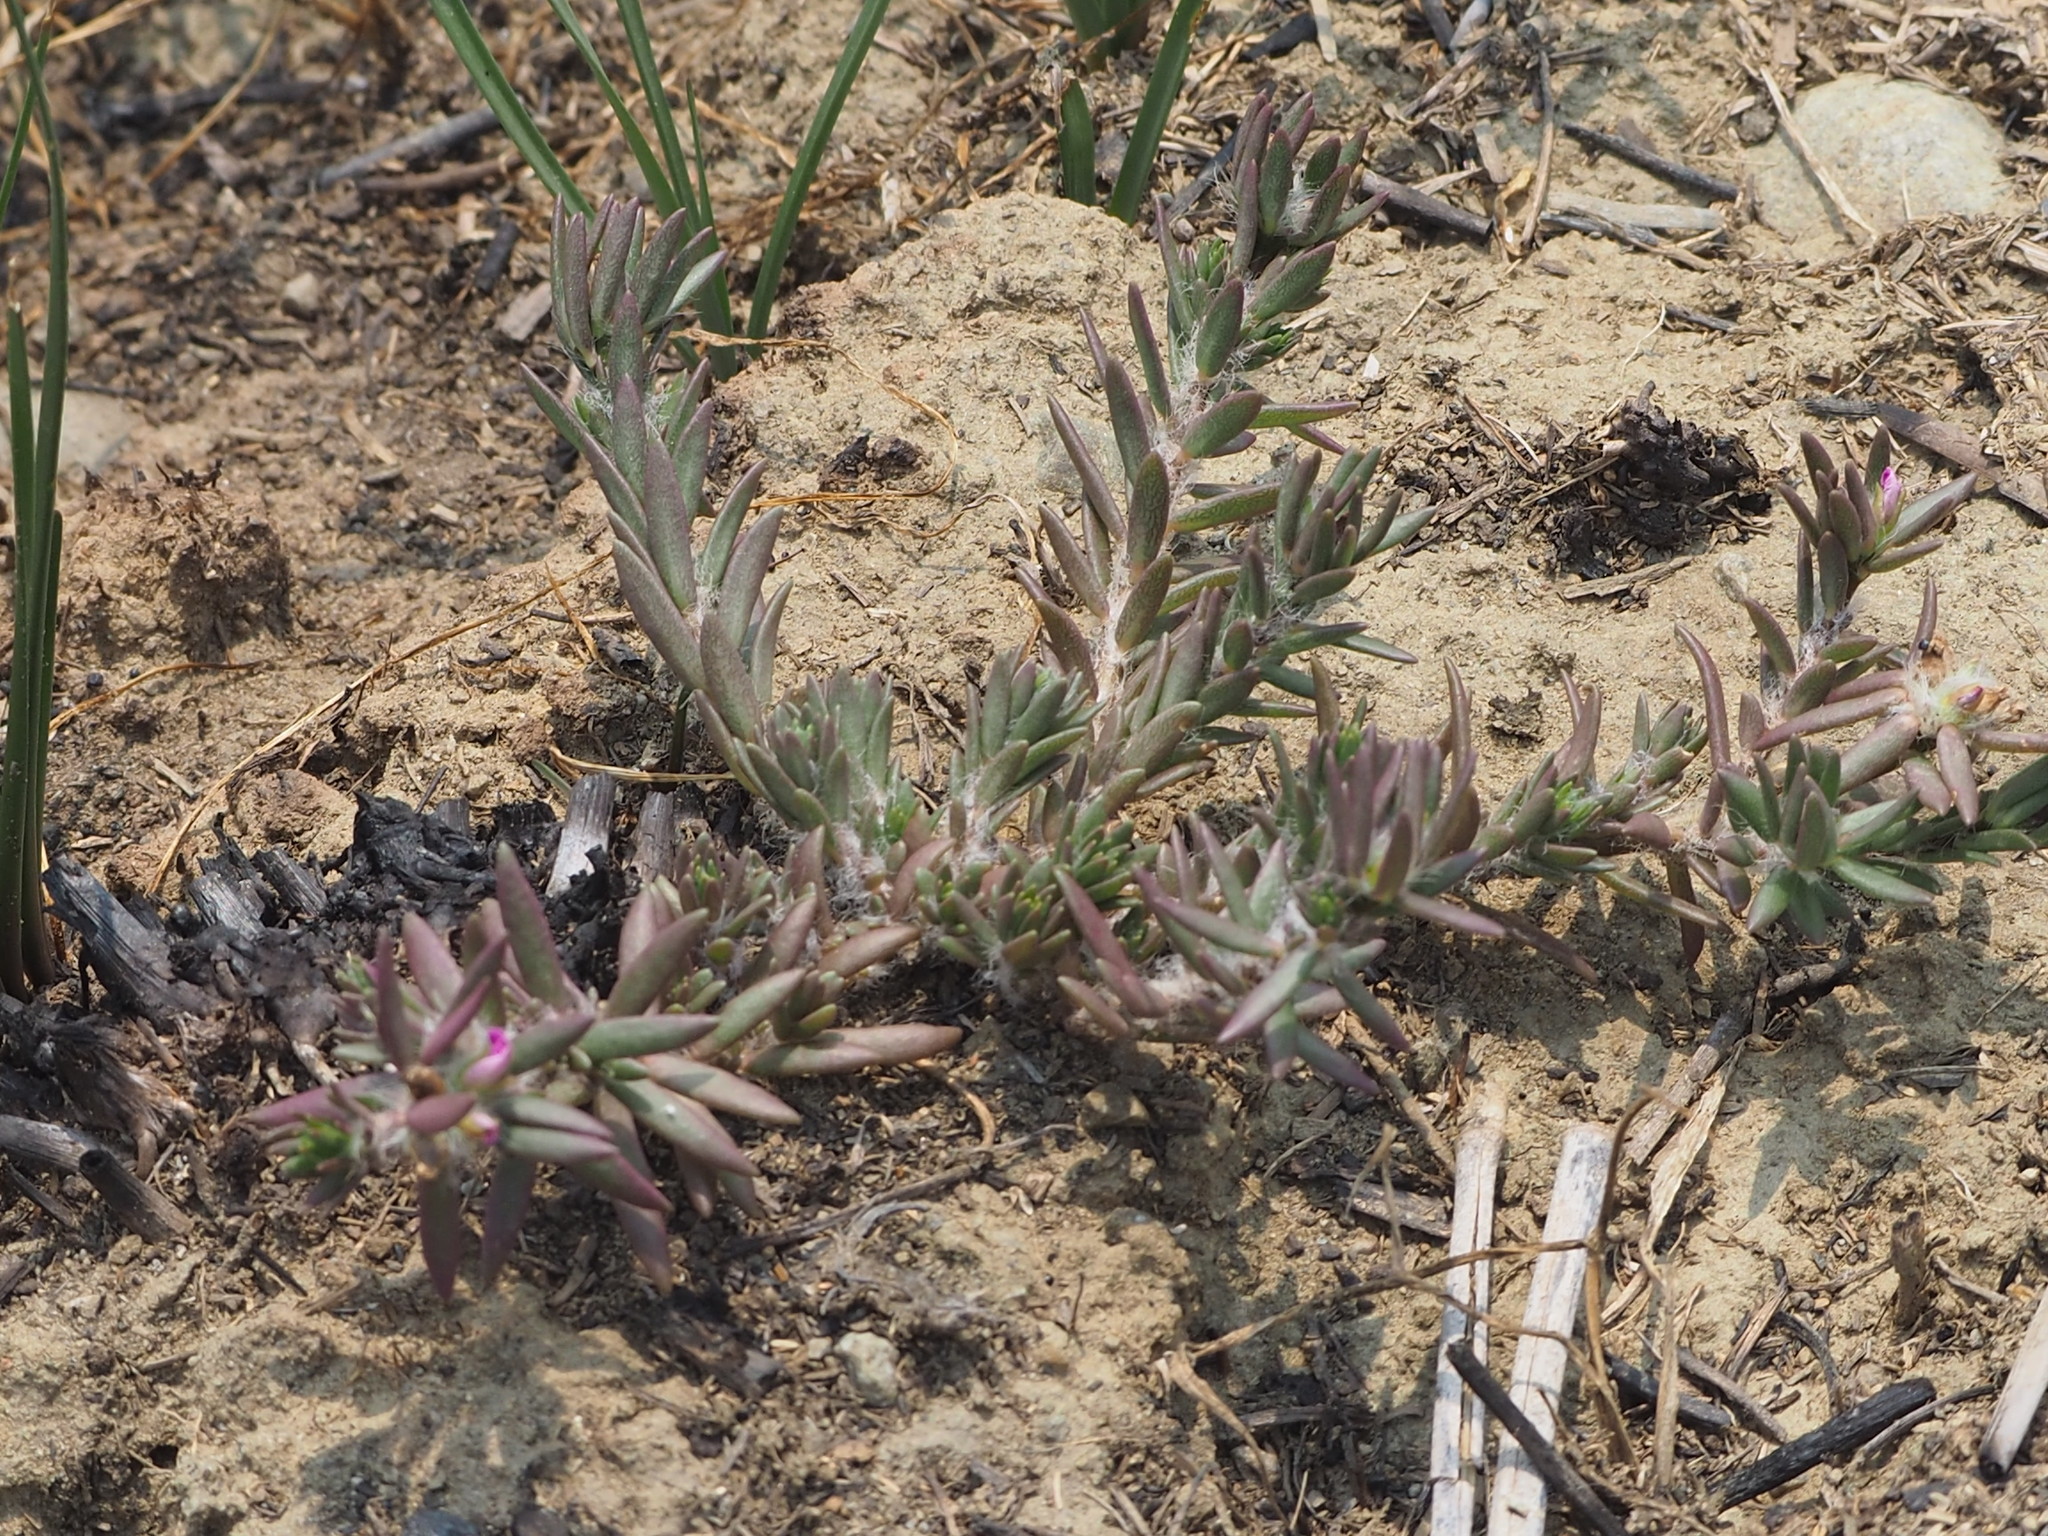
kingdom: Plantae
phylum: Tracheophyta
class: Magnoliopsida
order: Caryophyllales
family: Portulacaceae
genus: Portulaca
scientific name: Portulaca pilosa
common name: Kiss me quick
